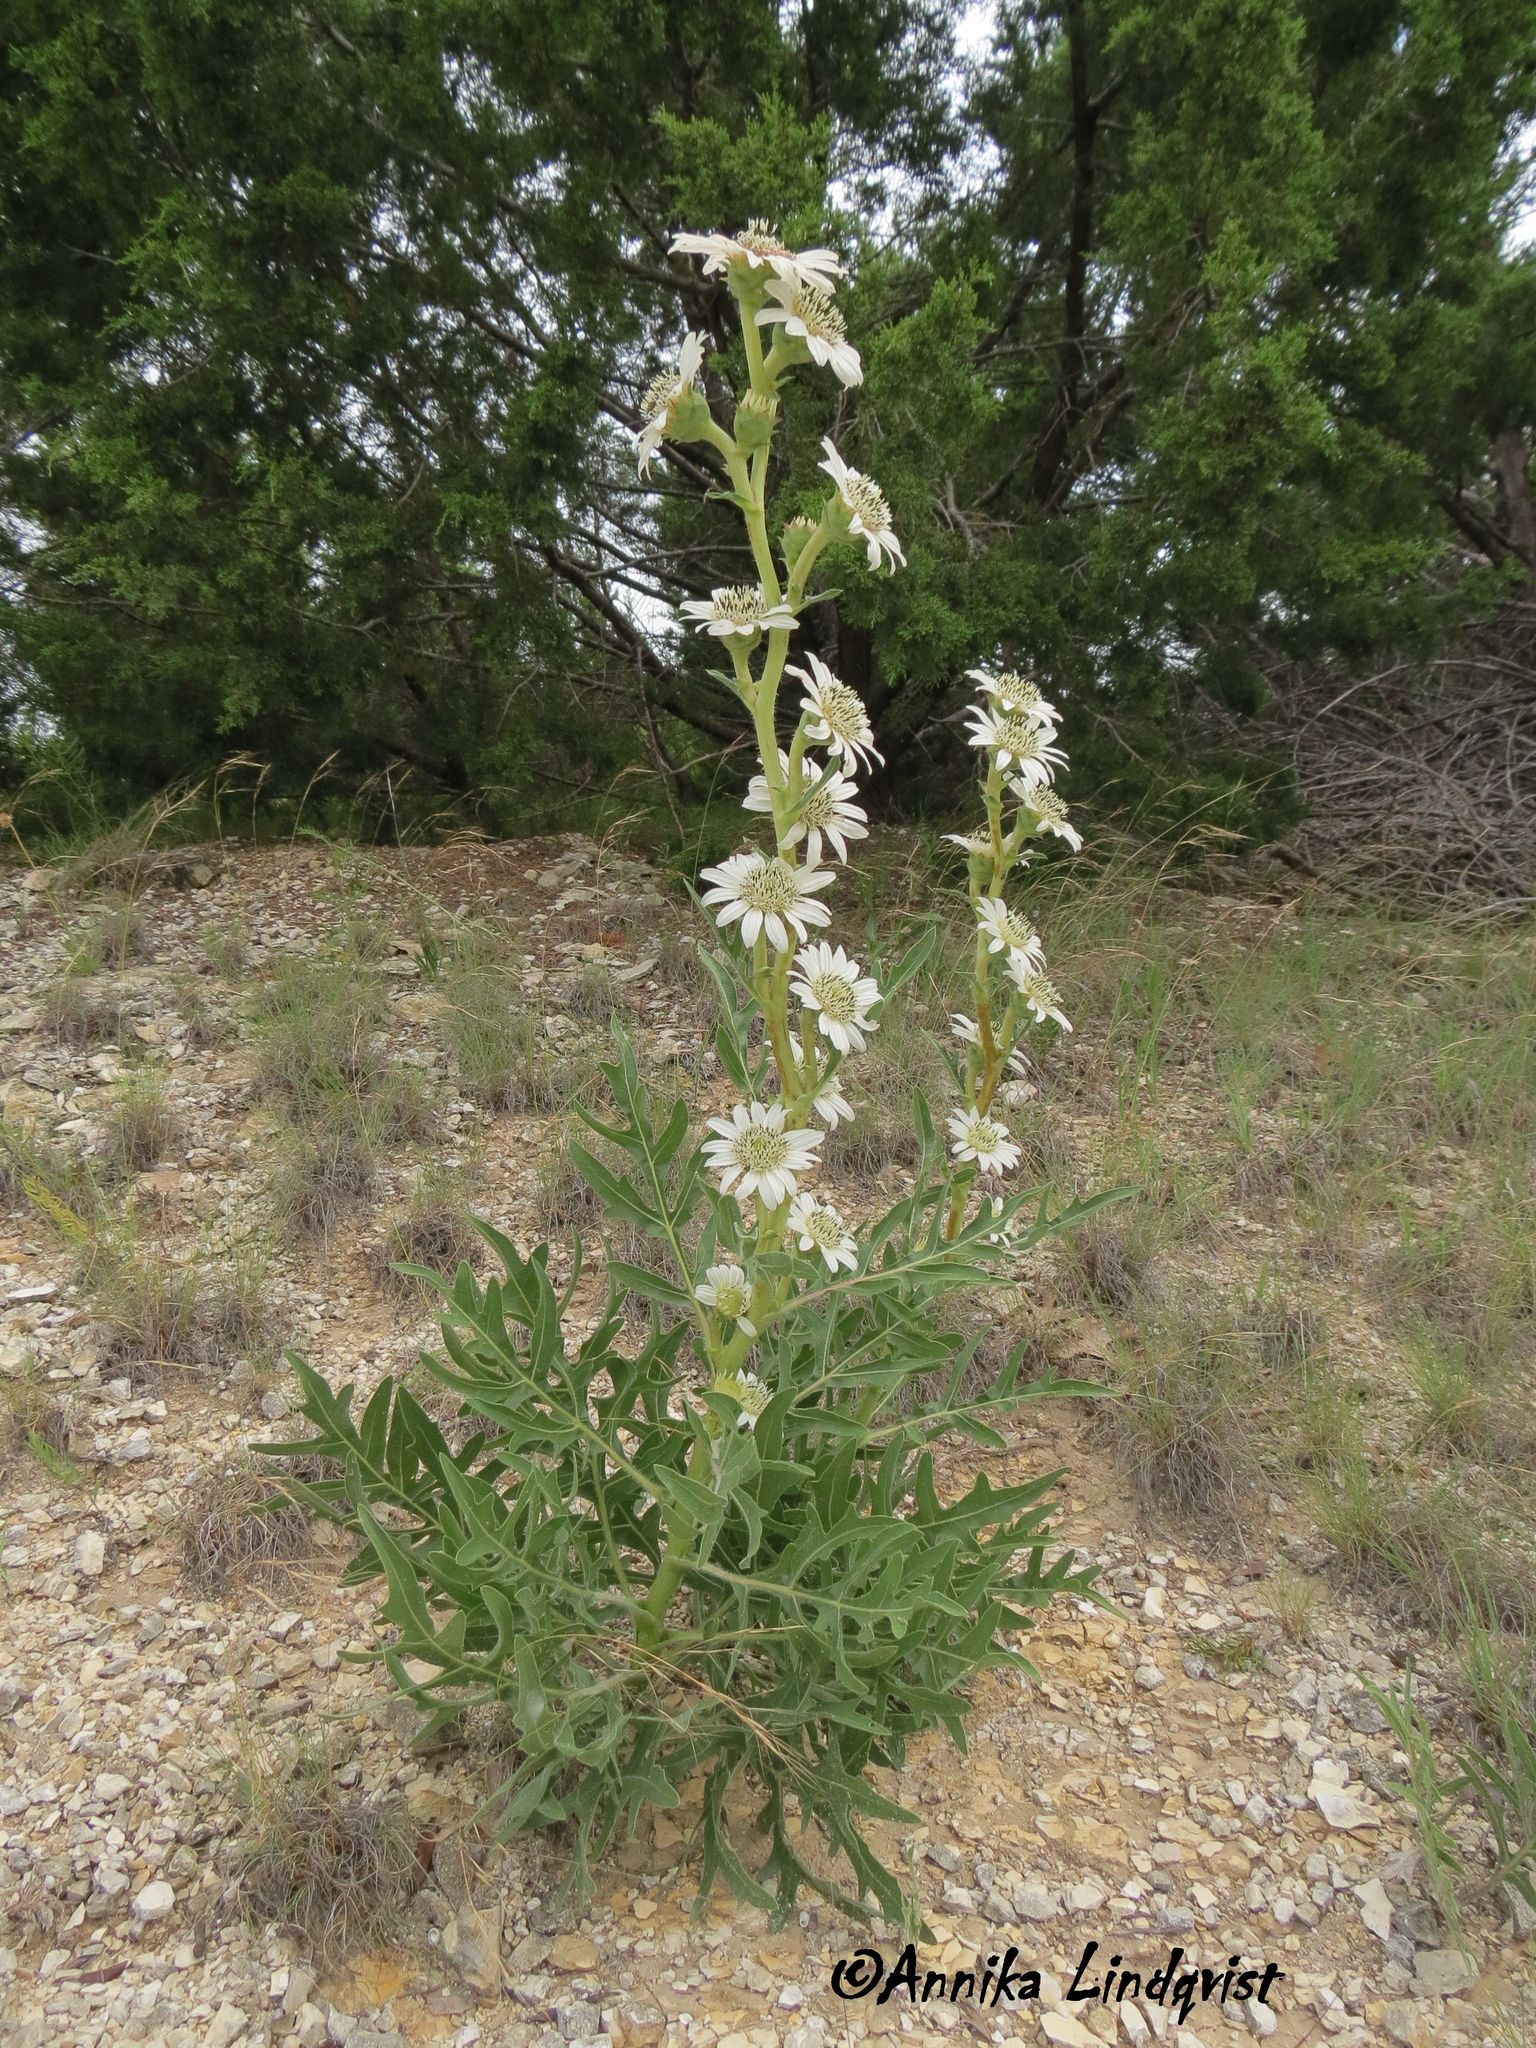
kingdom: Plantae
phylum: Tracheophyta
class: Magnoliopsida
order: Asterales
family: Asteraceae
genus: Silphium
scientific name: Silphium albiflorum
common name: White rosinweed
